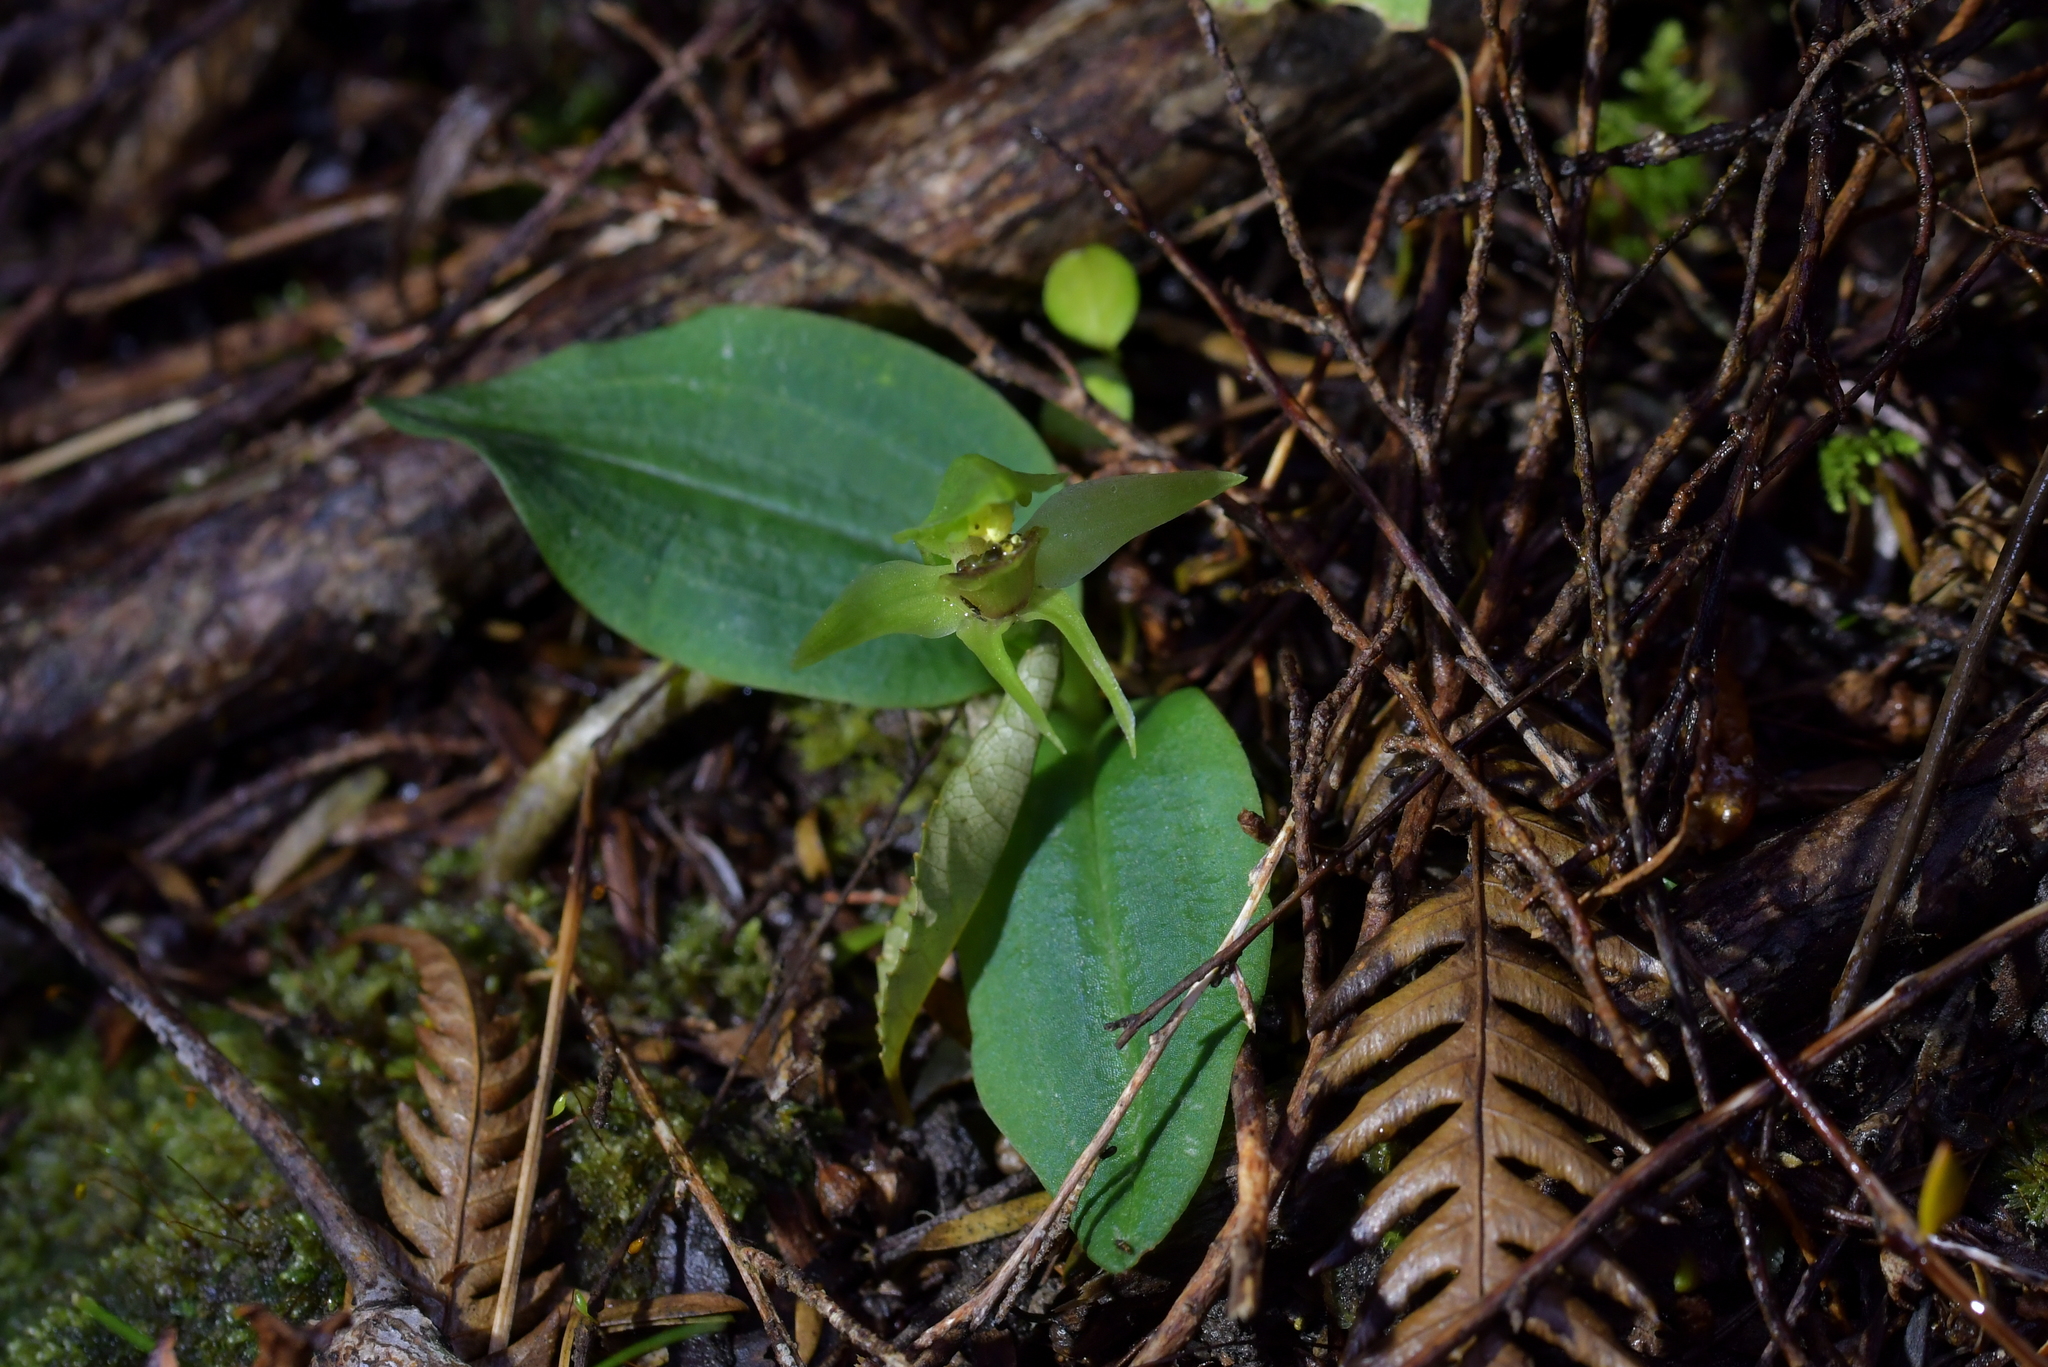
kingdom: Plantae
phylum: Tracheophyta
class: Liliopsida
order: Asparagales
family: Orchidaceae
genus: Chiloglottis
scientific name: Chiloglottis cornuta
